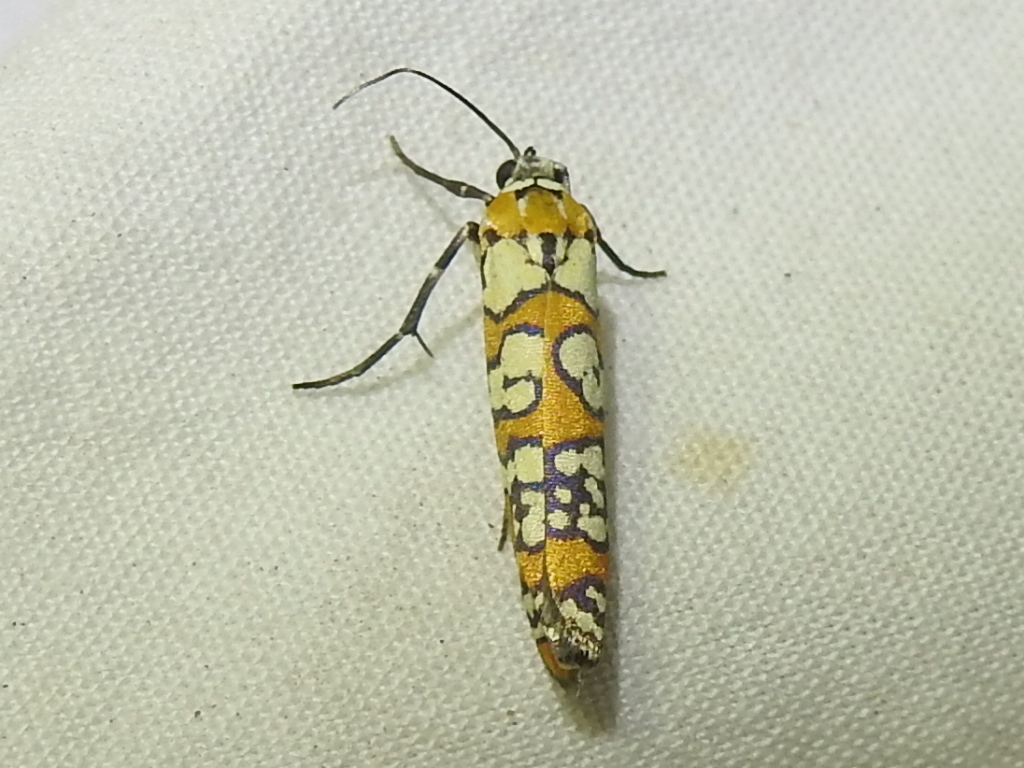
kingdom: Animalia
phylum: Arthropoda
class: Insecta
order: Lepidoptera
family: Attevidae
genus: Atteva
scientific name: Atteva punctella
